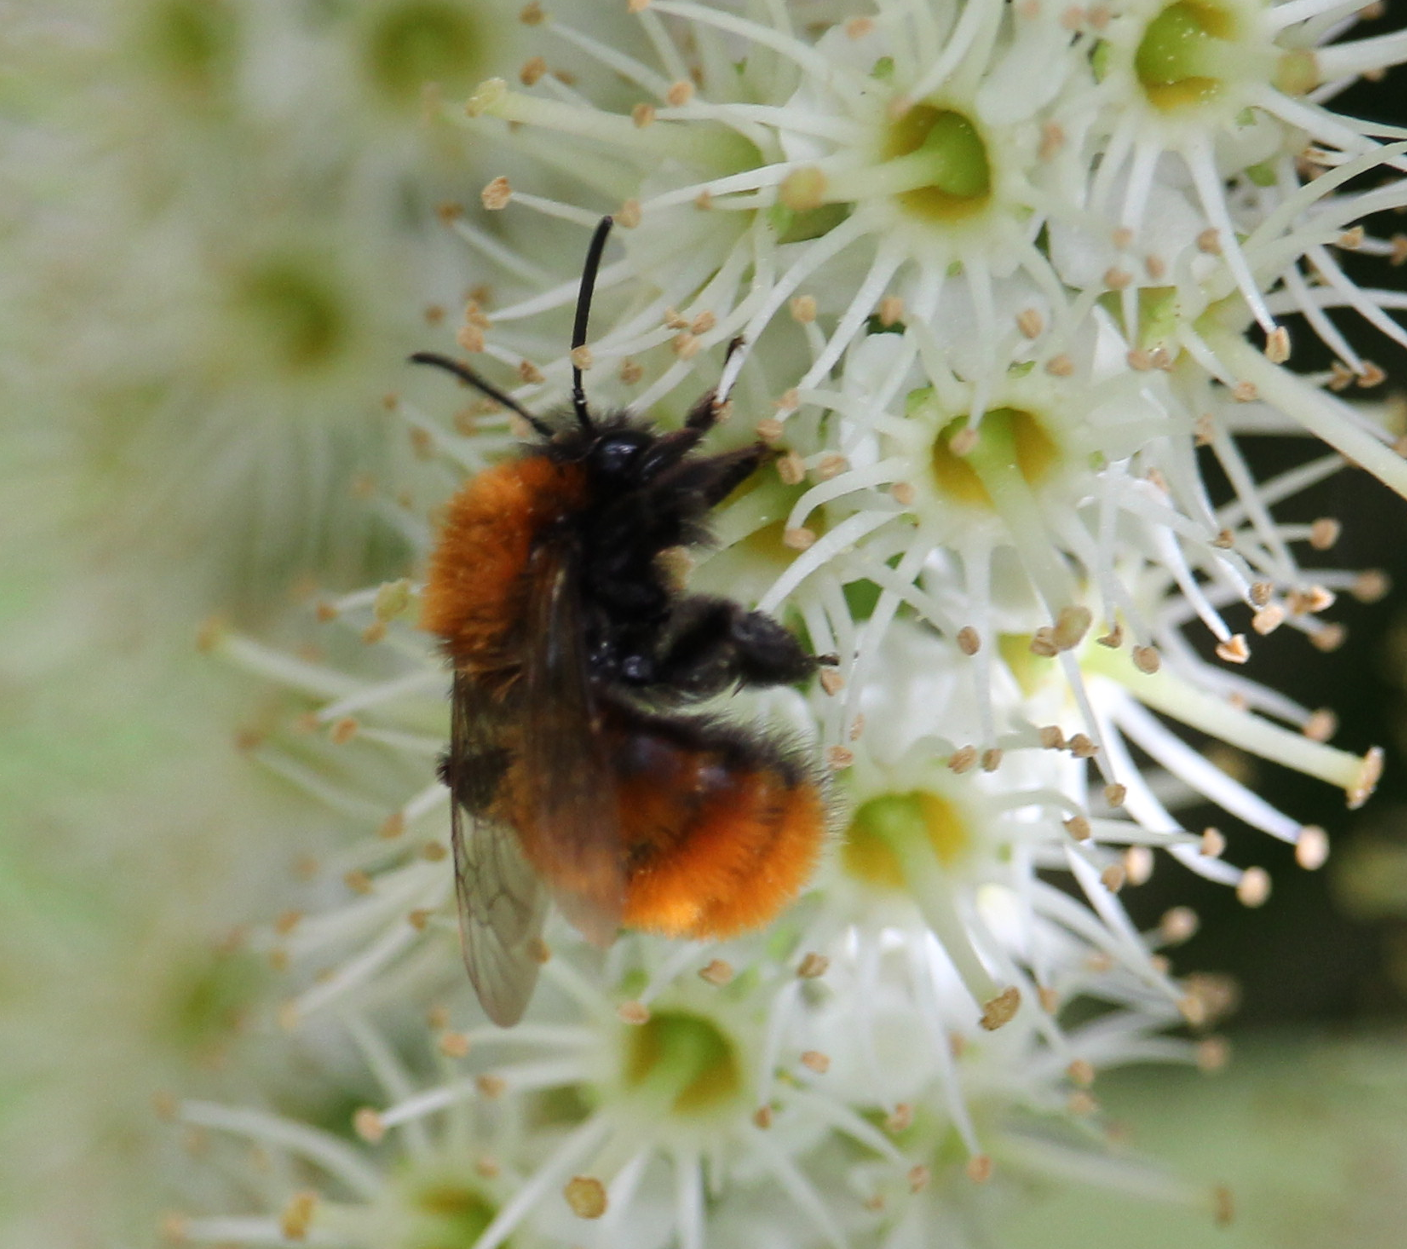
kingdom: Animalia
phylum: Arthropoda
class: Insecta
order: Hymenoptera
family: Andrenidae
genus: Andrena
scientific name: Andrena fulva
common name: Tawny mining bee
